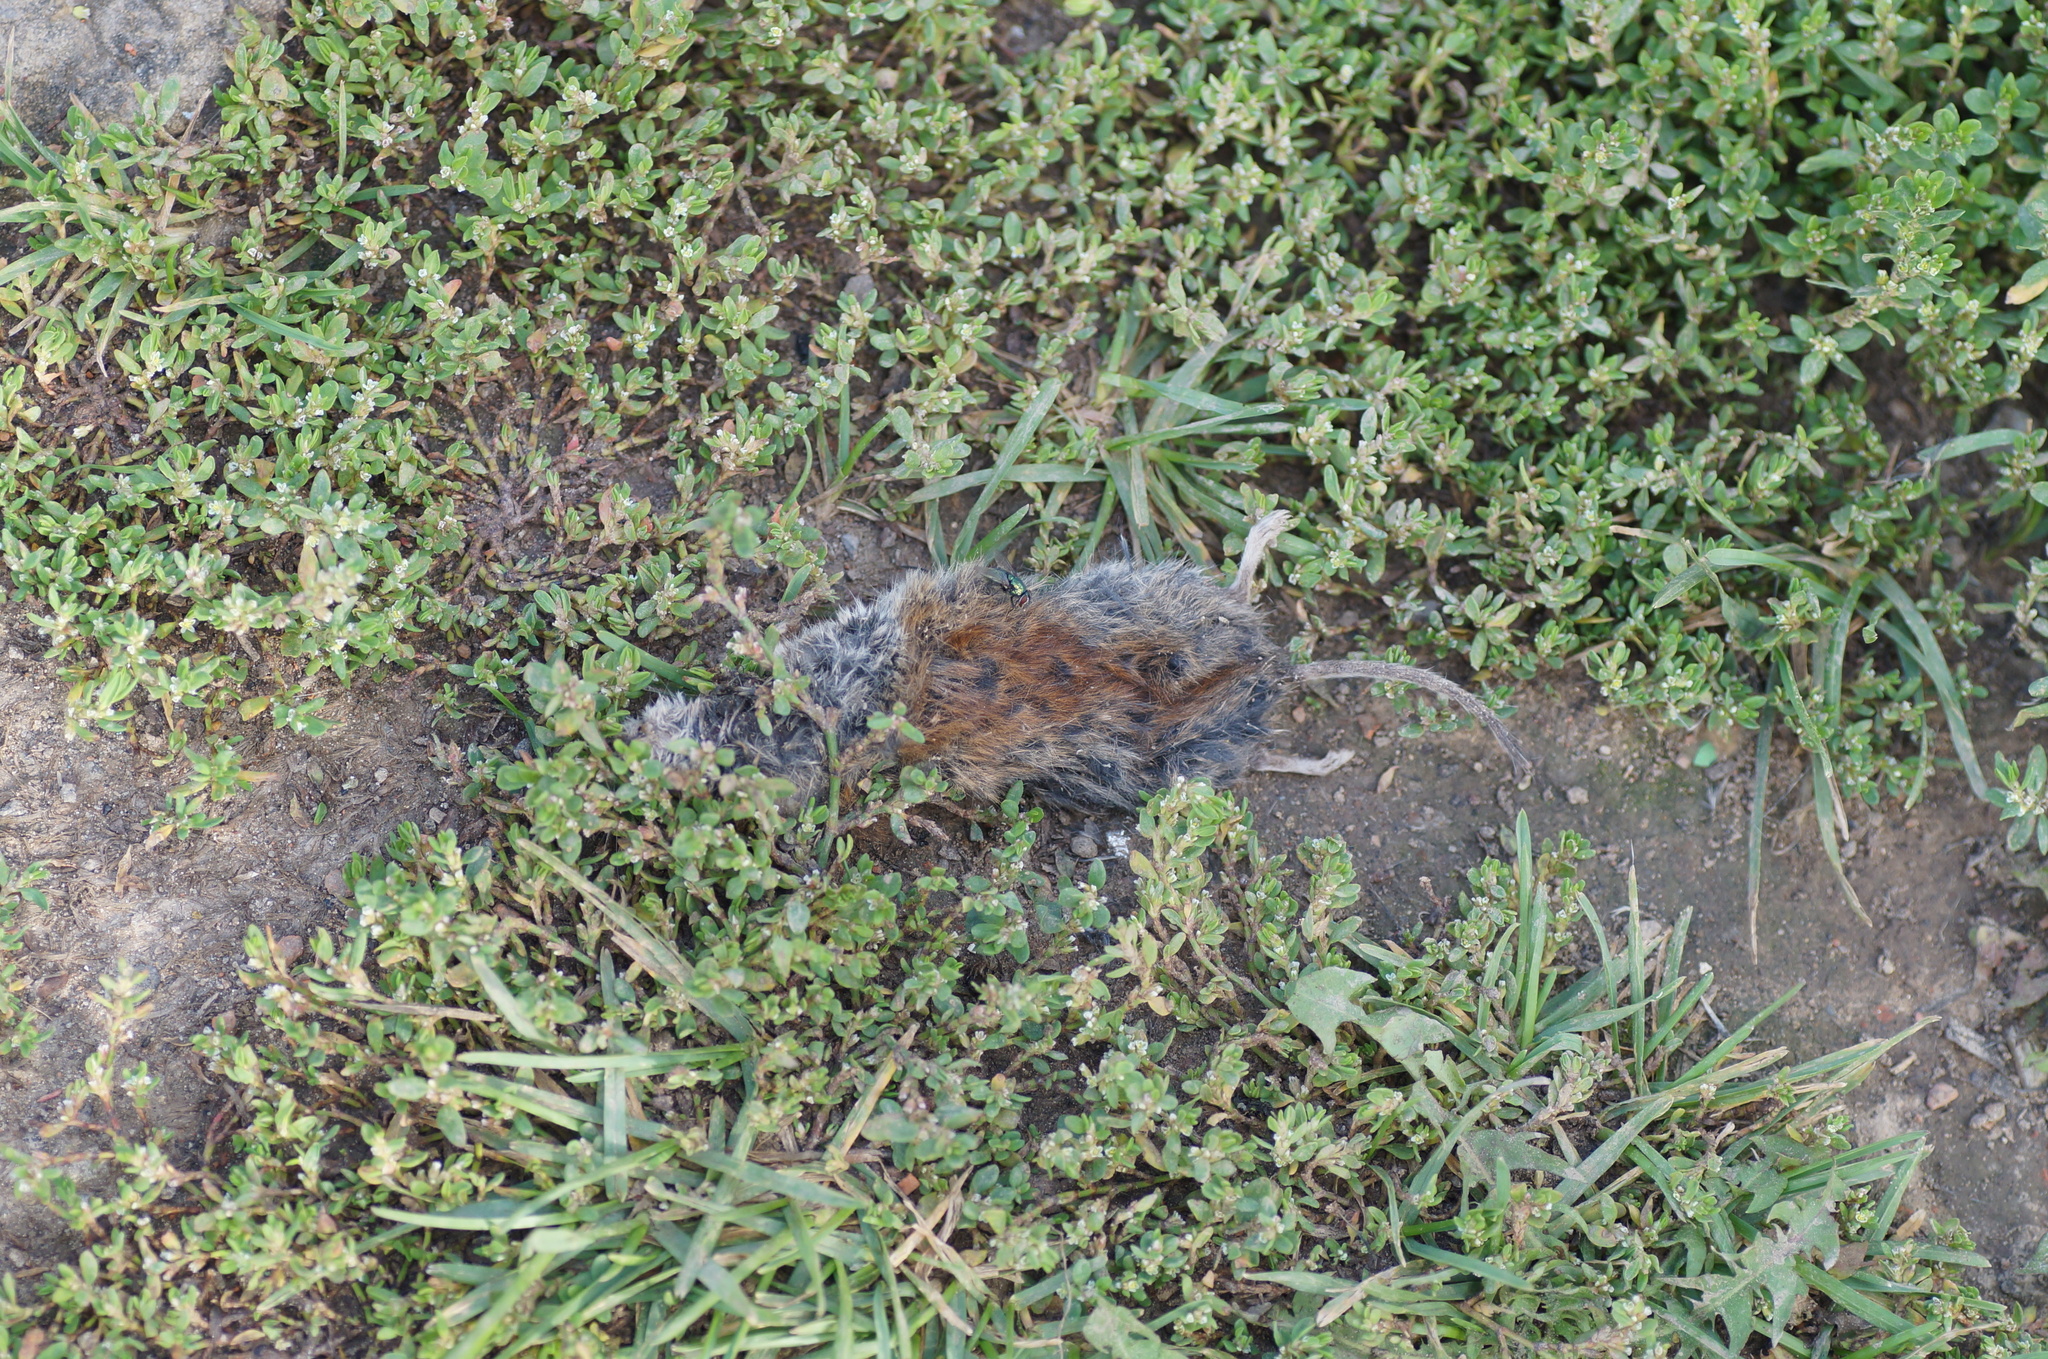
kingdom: Animalia
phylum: Chordata
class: Mammalia
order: Rodentia
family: Cricetidae
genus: Myodes
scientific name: Myodes glareolus
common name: Bank vole
